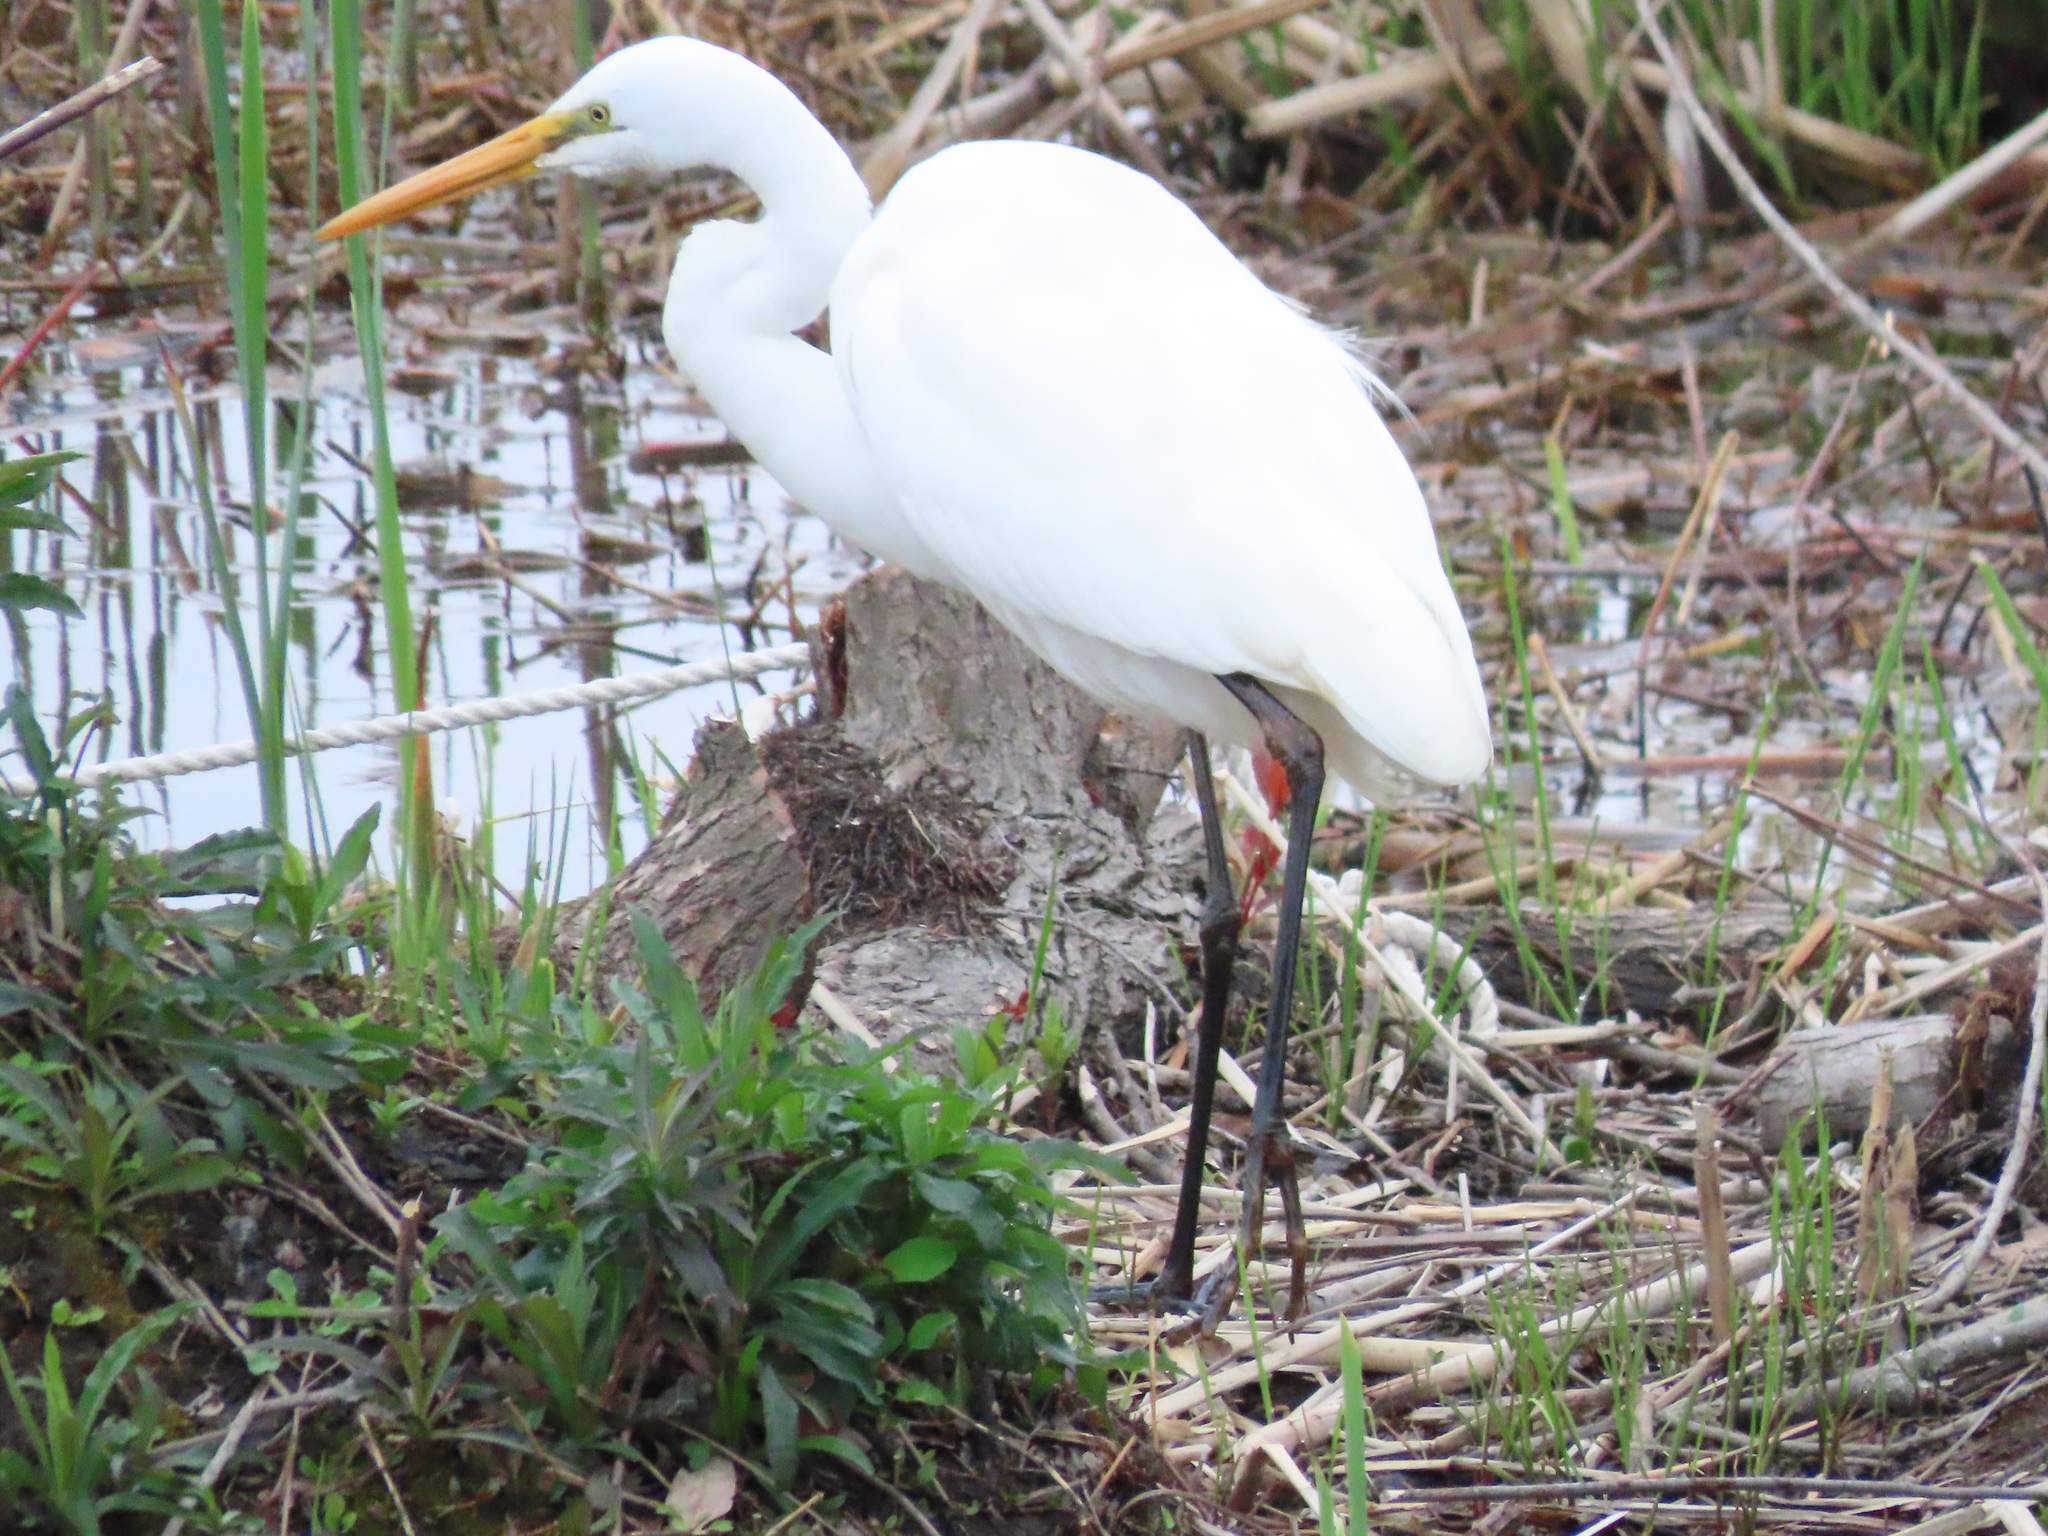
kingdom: Animalia
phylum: Chordata
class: Aves
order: Pelecaniformes
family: Ardeidae
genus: Ardea
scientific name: Ardea alba
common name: Great egret
